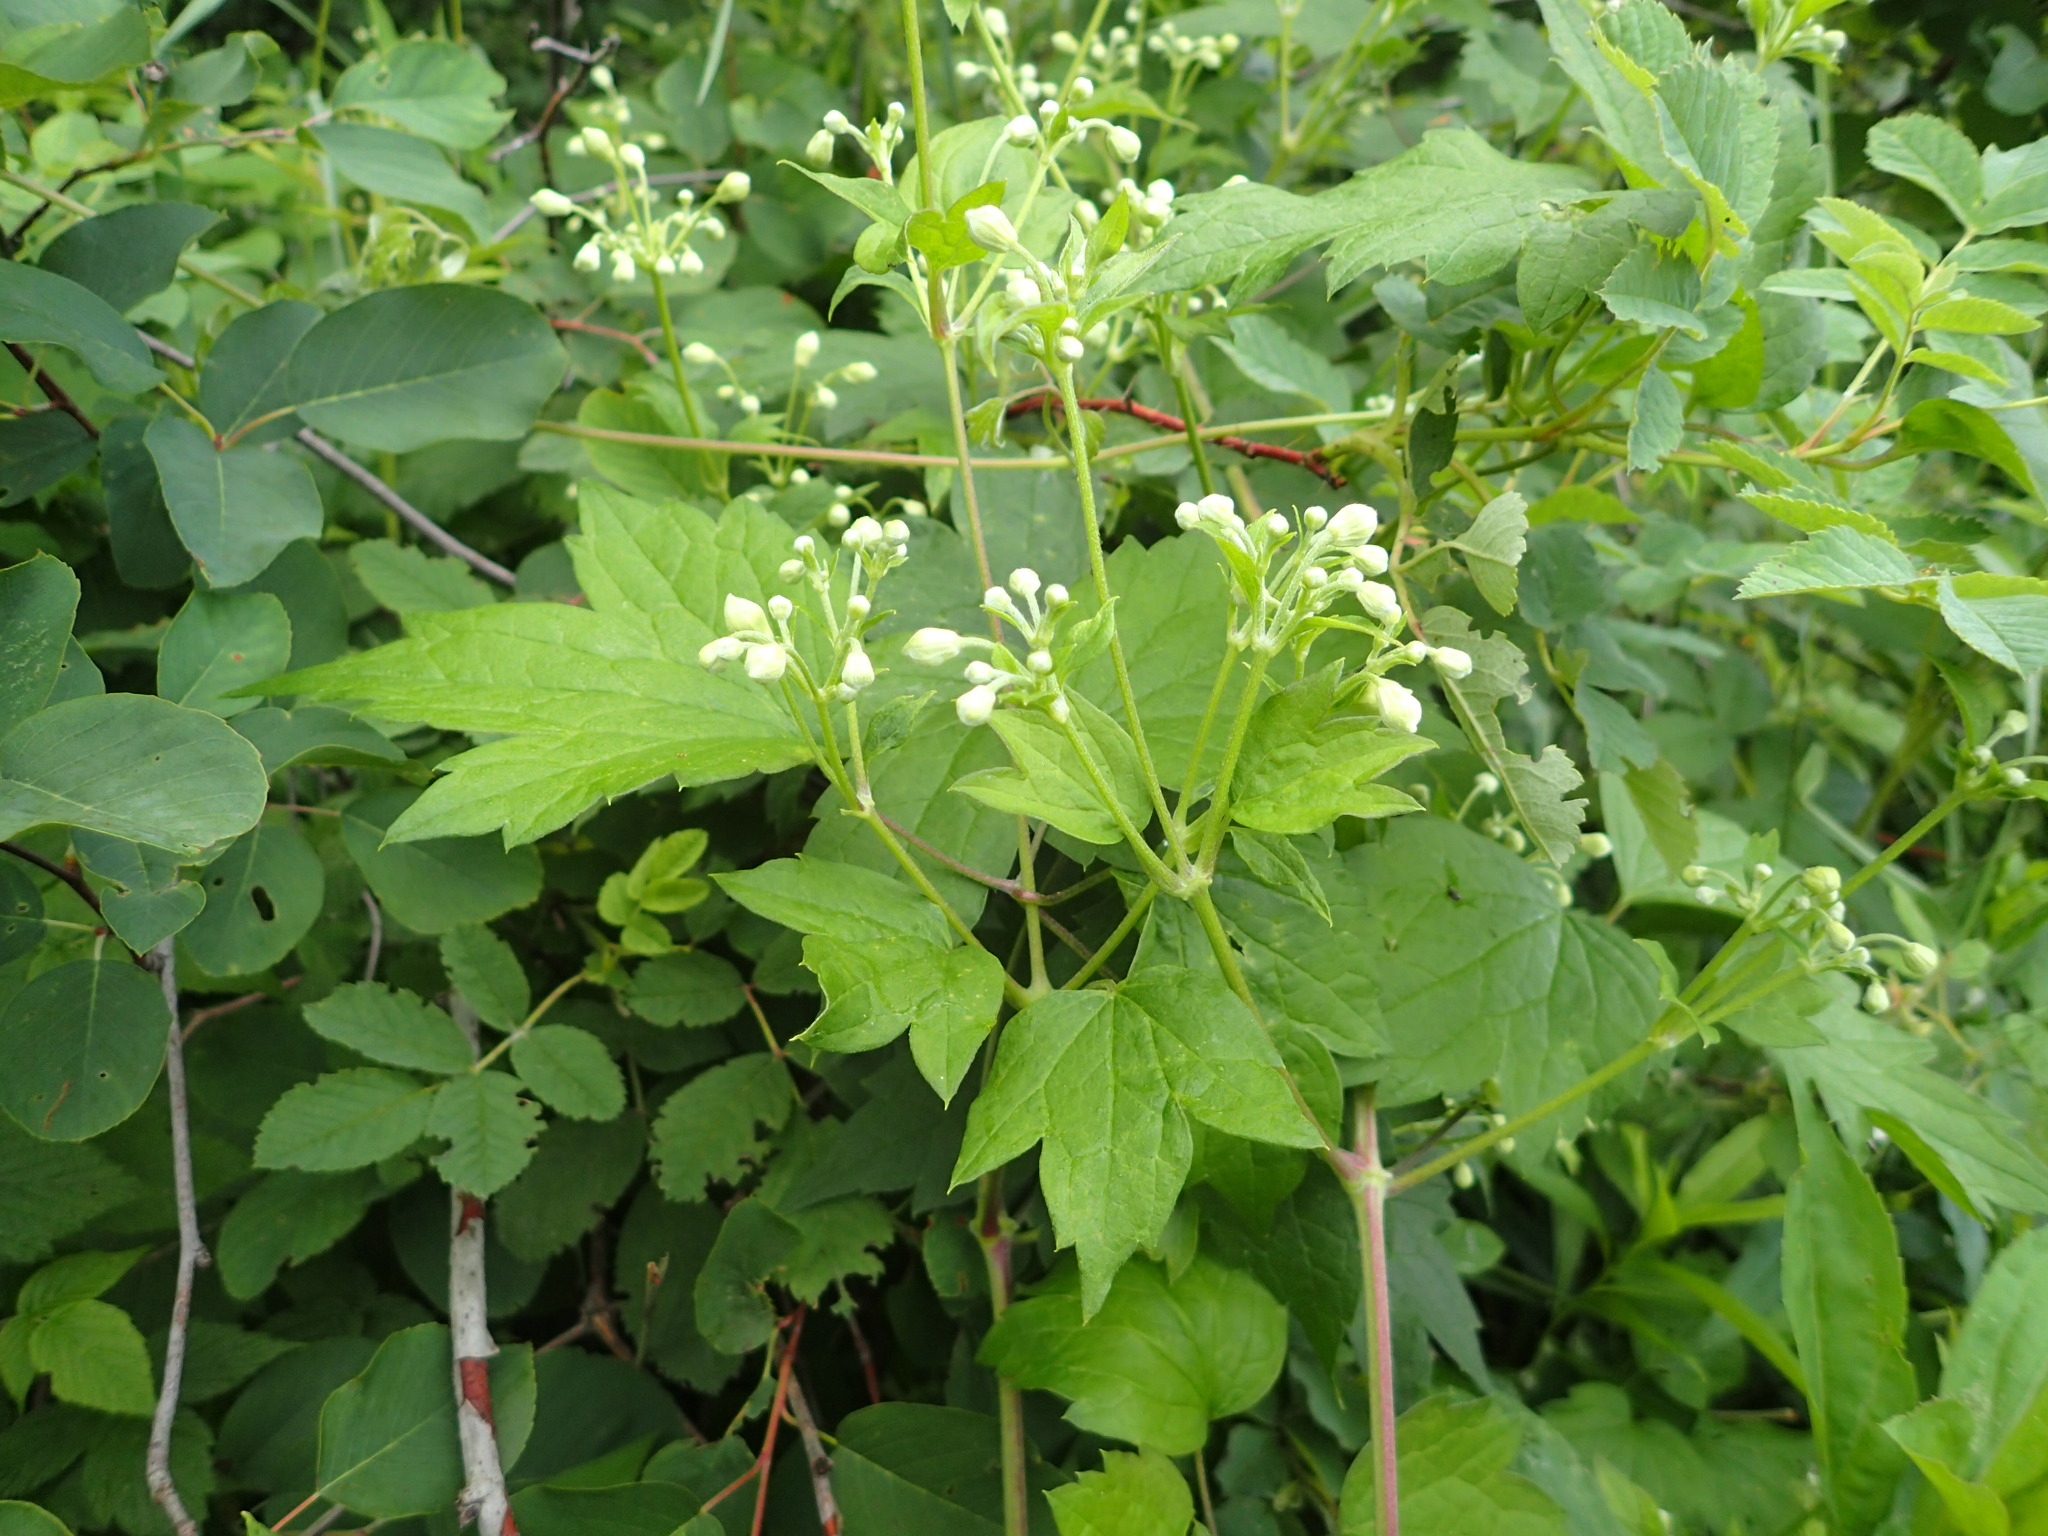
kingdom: Plantae
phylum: Tracheophyta
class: Magnoliopsida
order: Ranunculales
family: Ranunculaceae
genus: Clematis
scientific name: Clematis virginiana
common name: Virgin's-bower
